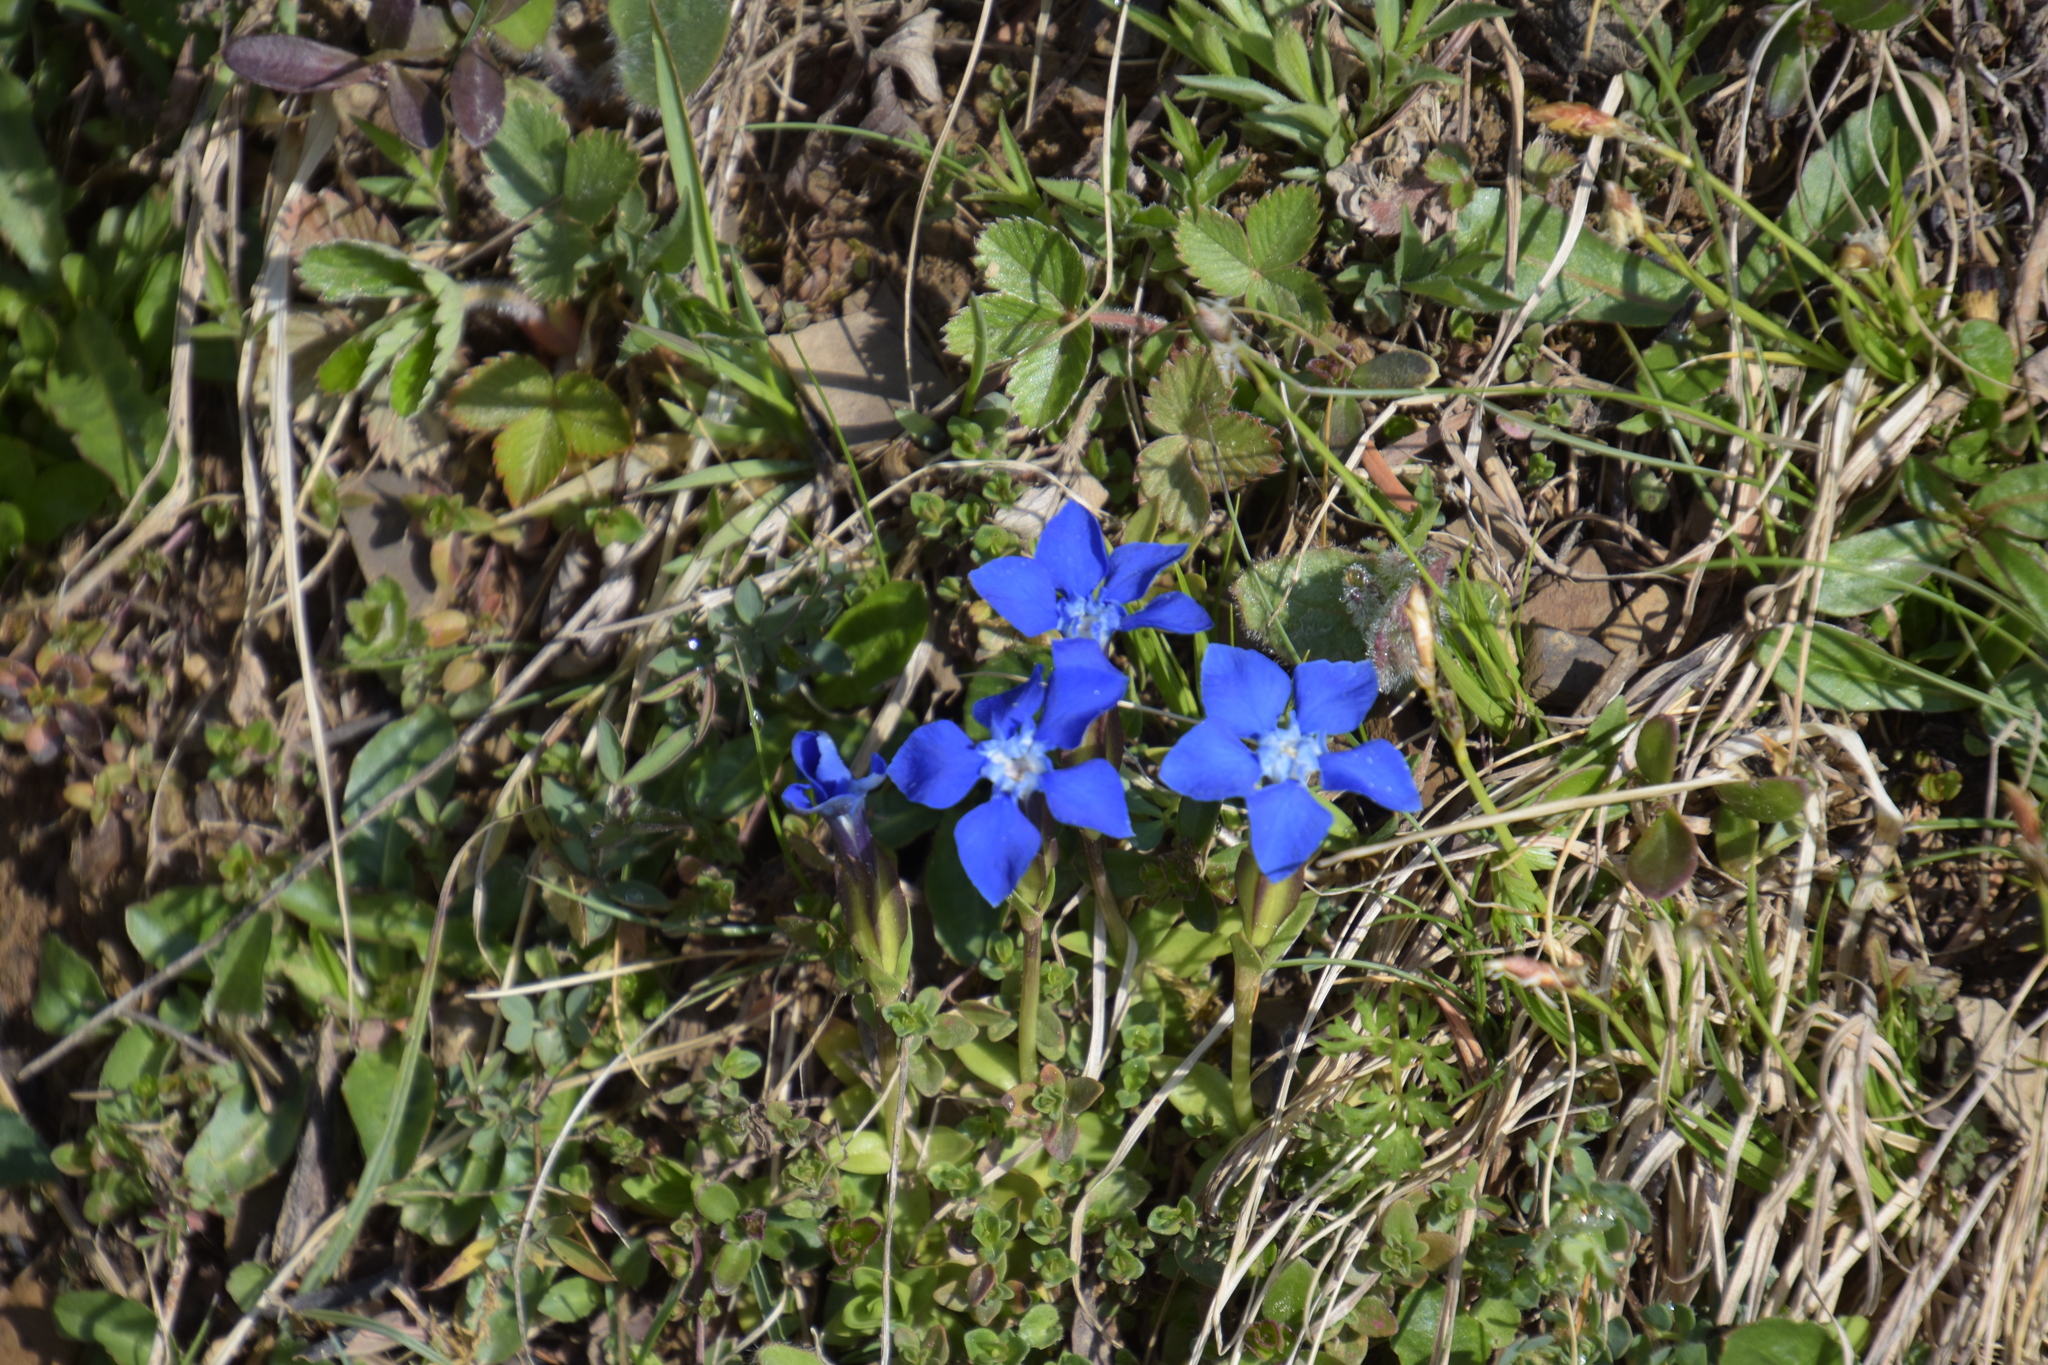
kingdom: Plantae
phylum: Tracheophyta
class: Magnoliopsida
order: Gentianales
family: Gentianaceae
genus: Gentiana
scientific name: Gentiana verna
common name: Spring gentian
